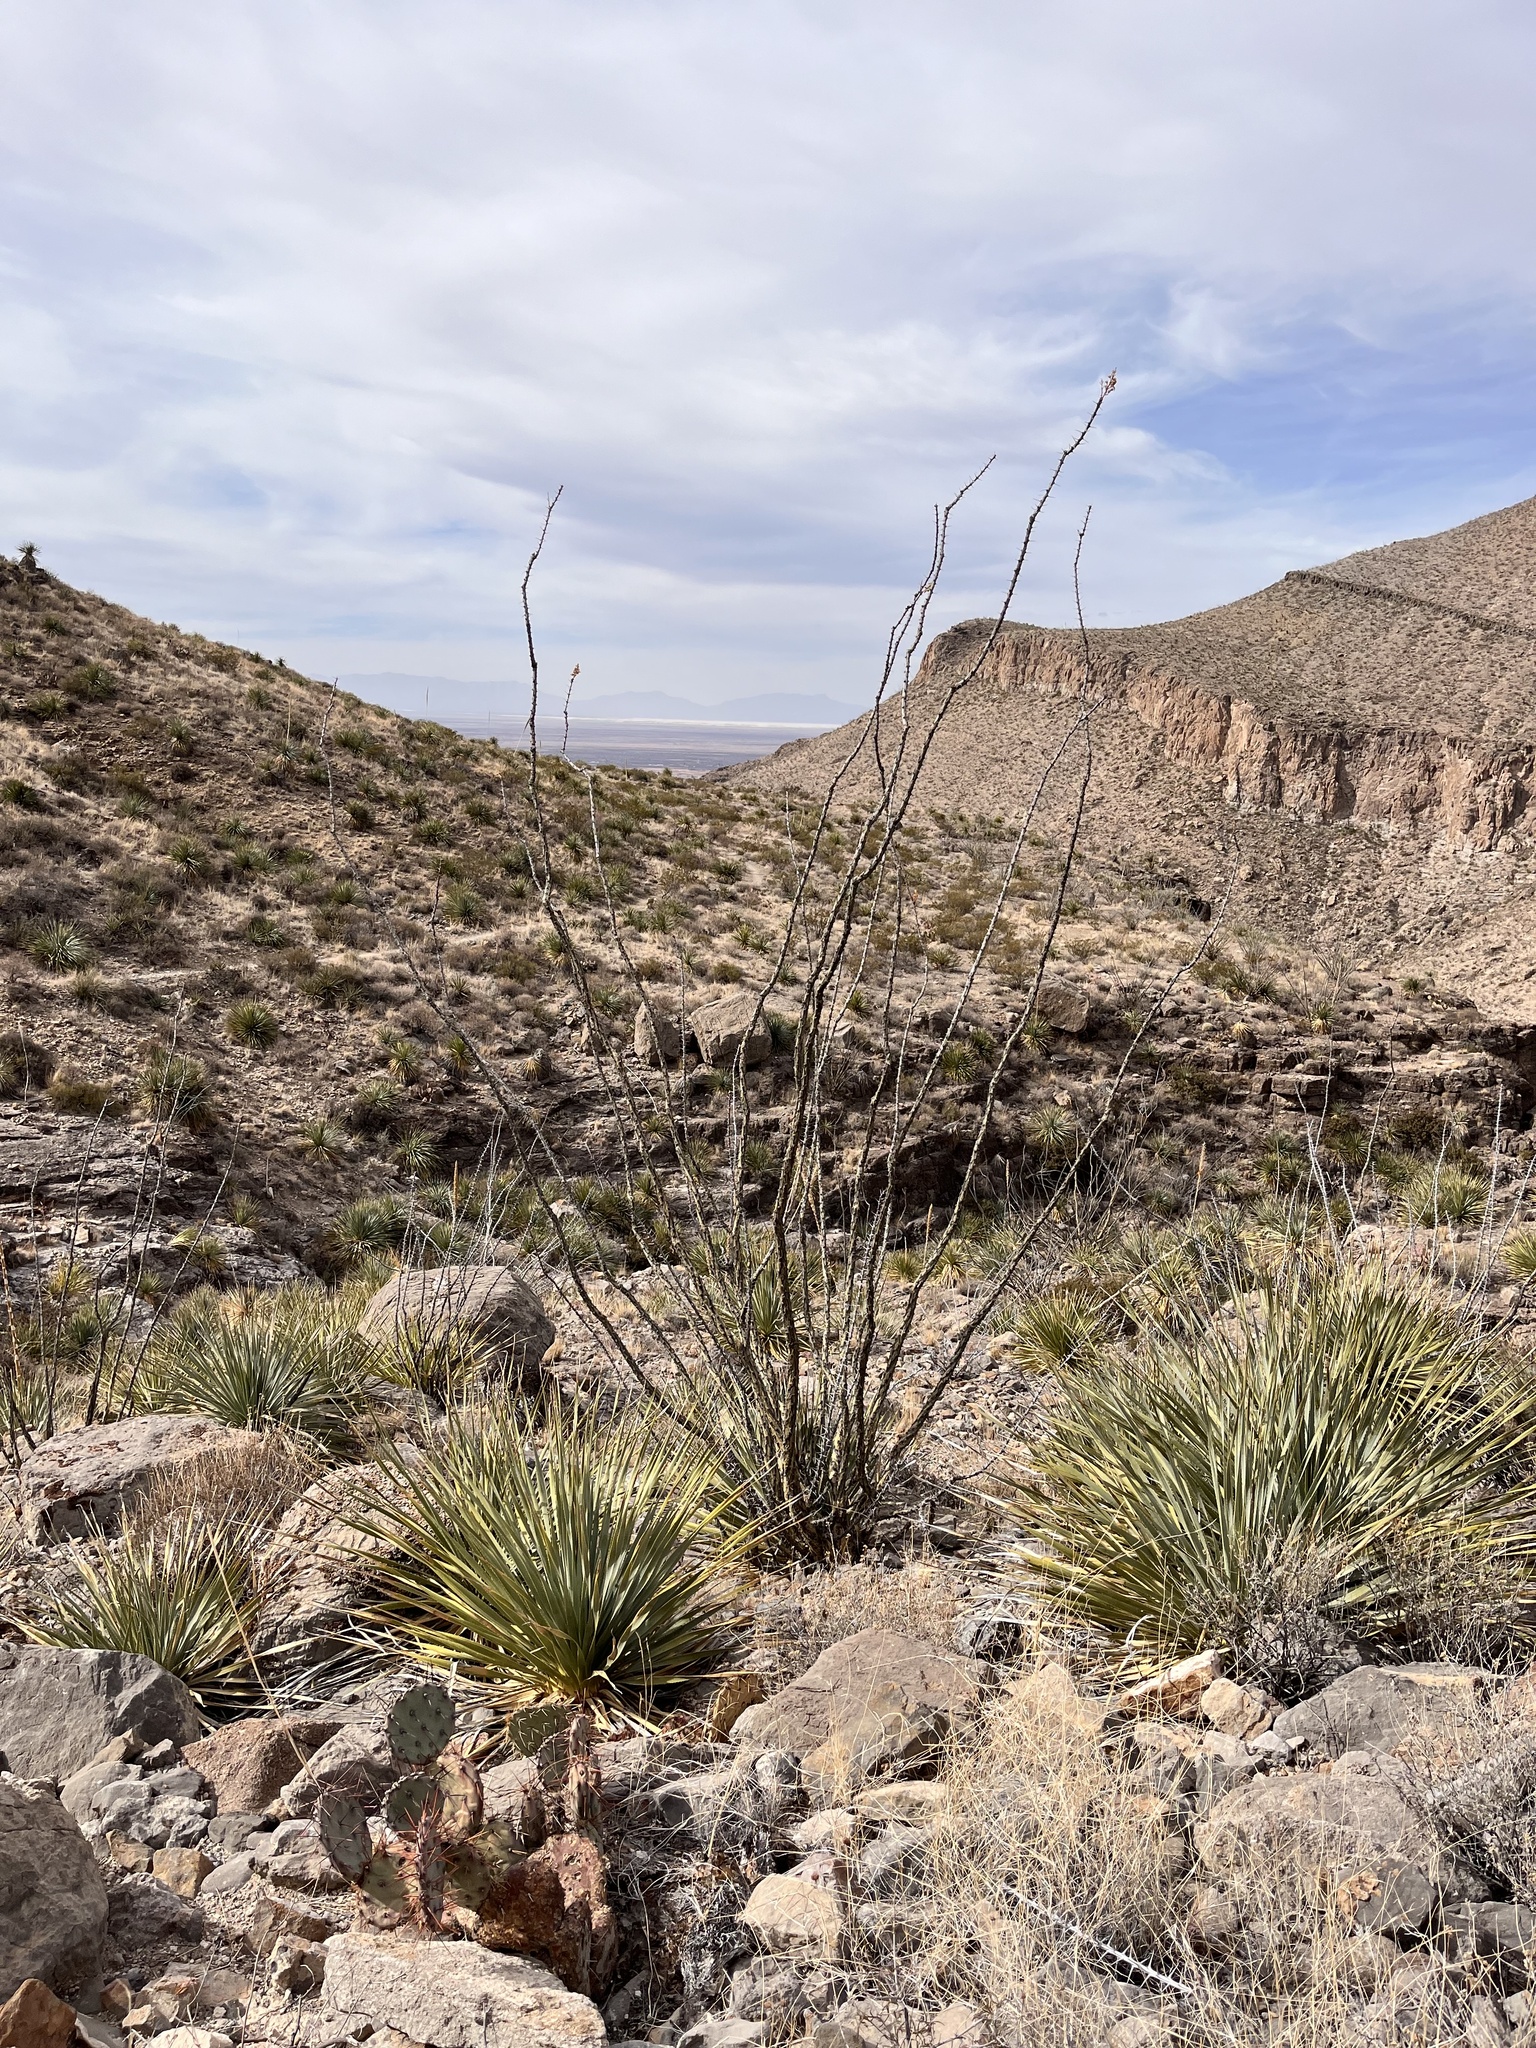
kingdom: Plantae
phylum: Tracheophyta
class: Magnoliopsida
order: Ericales
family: Fouquieriaceae
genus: Fouquieria
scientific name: Fouquieria splendens
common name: Vine-cactus
